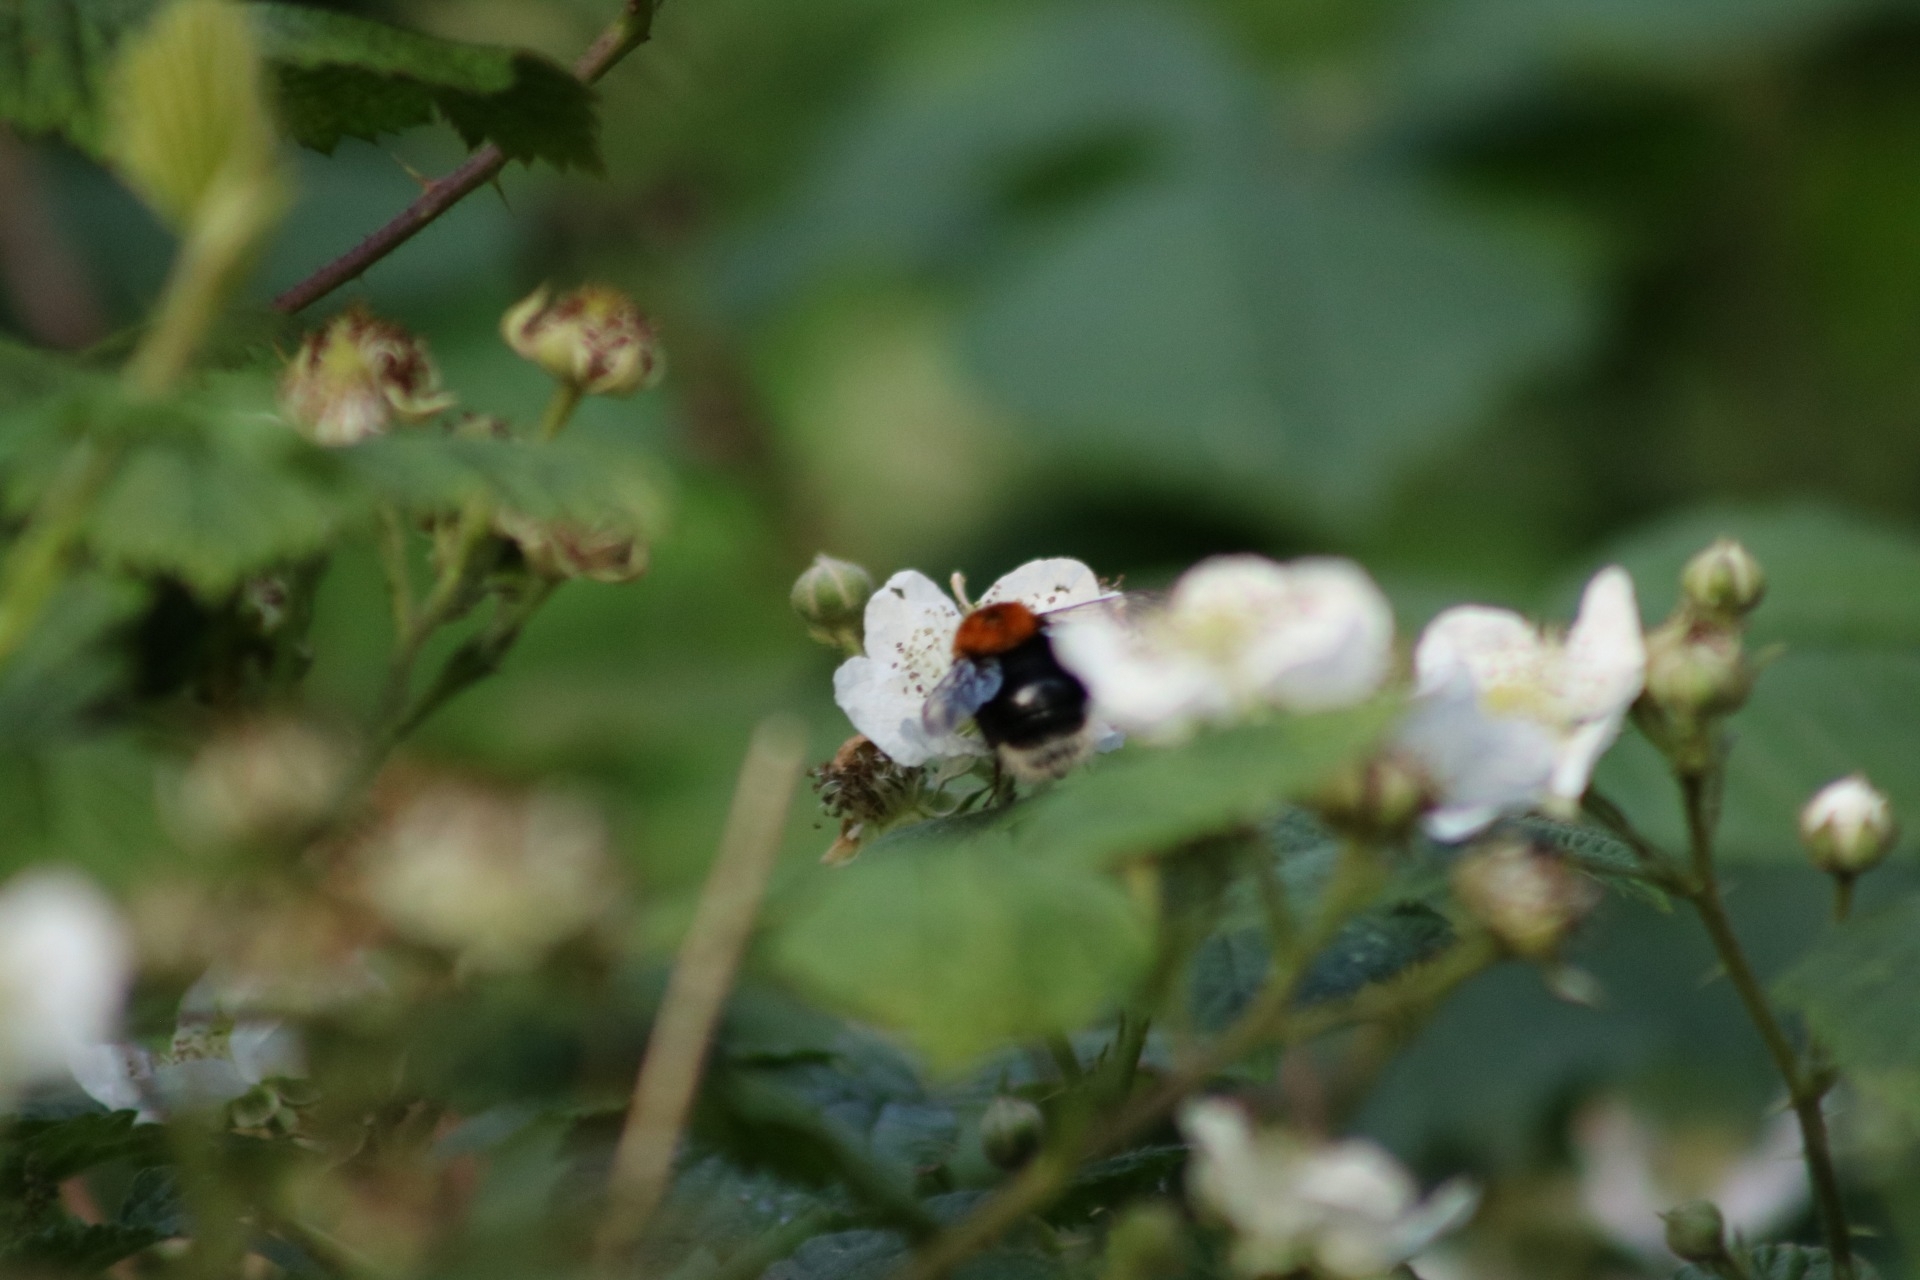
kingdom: Animalia
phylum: Arthropoda
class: Insecta
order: Hymenoptera
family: Apidae
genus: Bombus
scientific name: Bombus hypnorum
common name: New garden bumblebee
